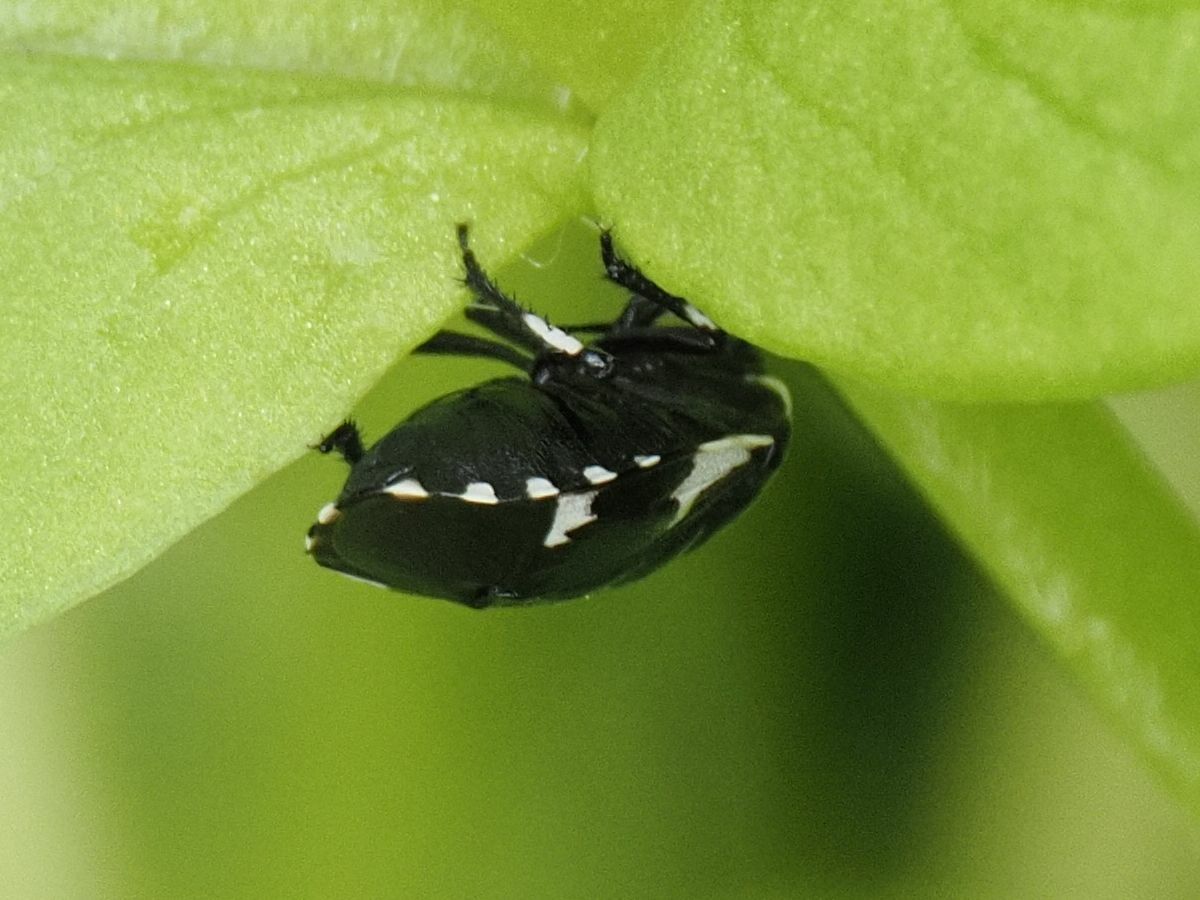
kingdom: Animalia
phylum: Arthropoda
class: Insecta
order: Hemiptera
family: Cydnidae
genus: Tritomegas
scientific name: Tritomegas sexmaculatus
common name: Rambur's pied shieldbug
